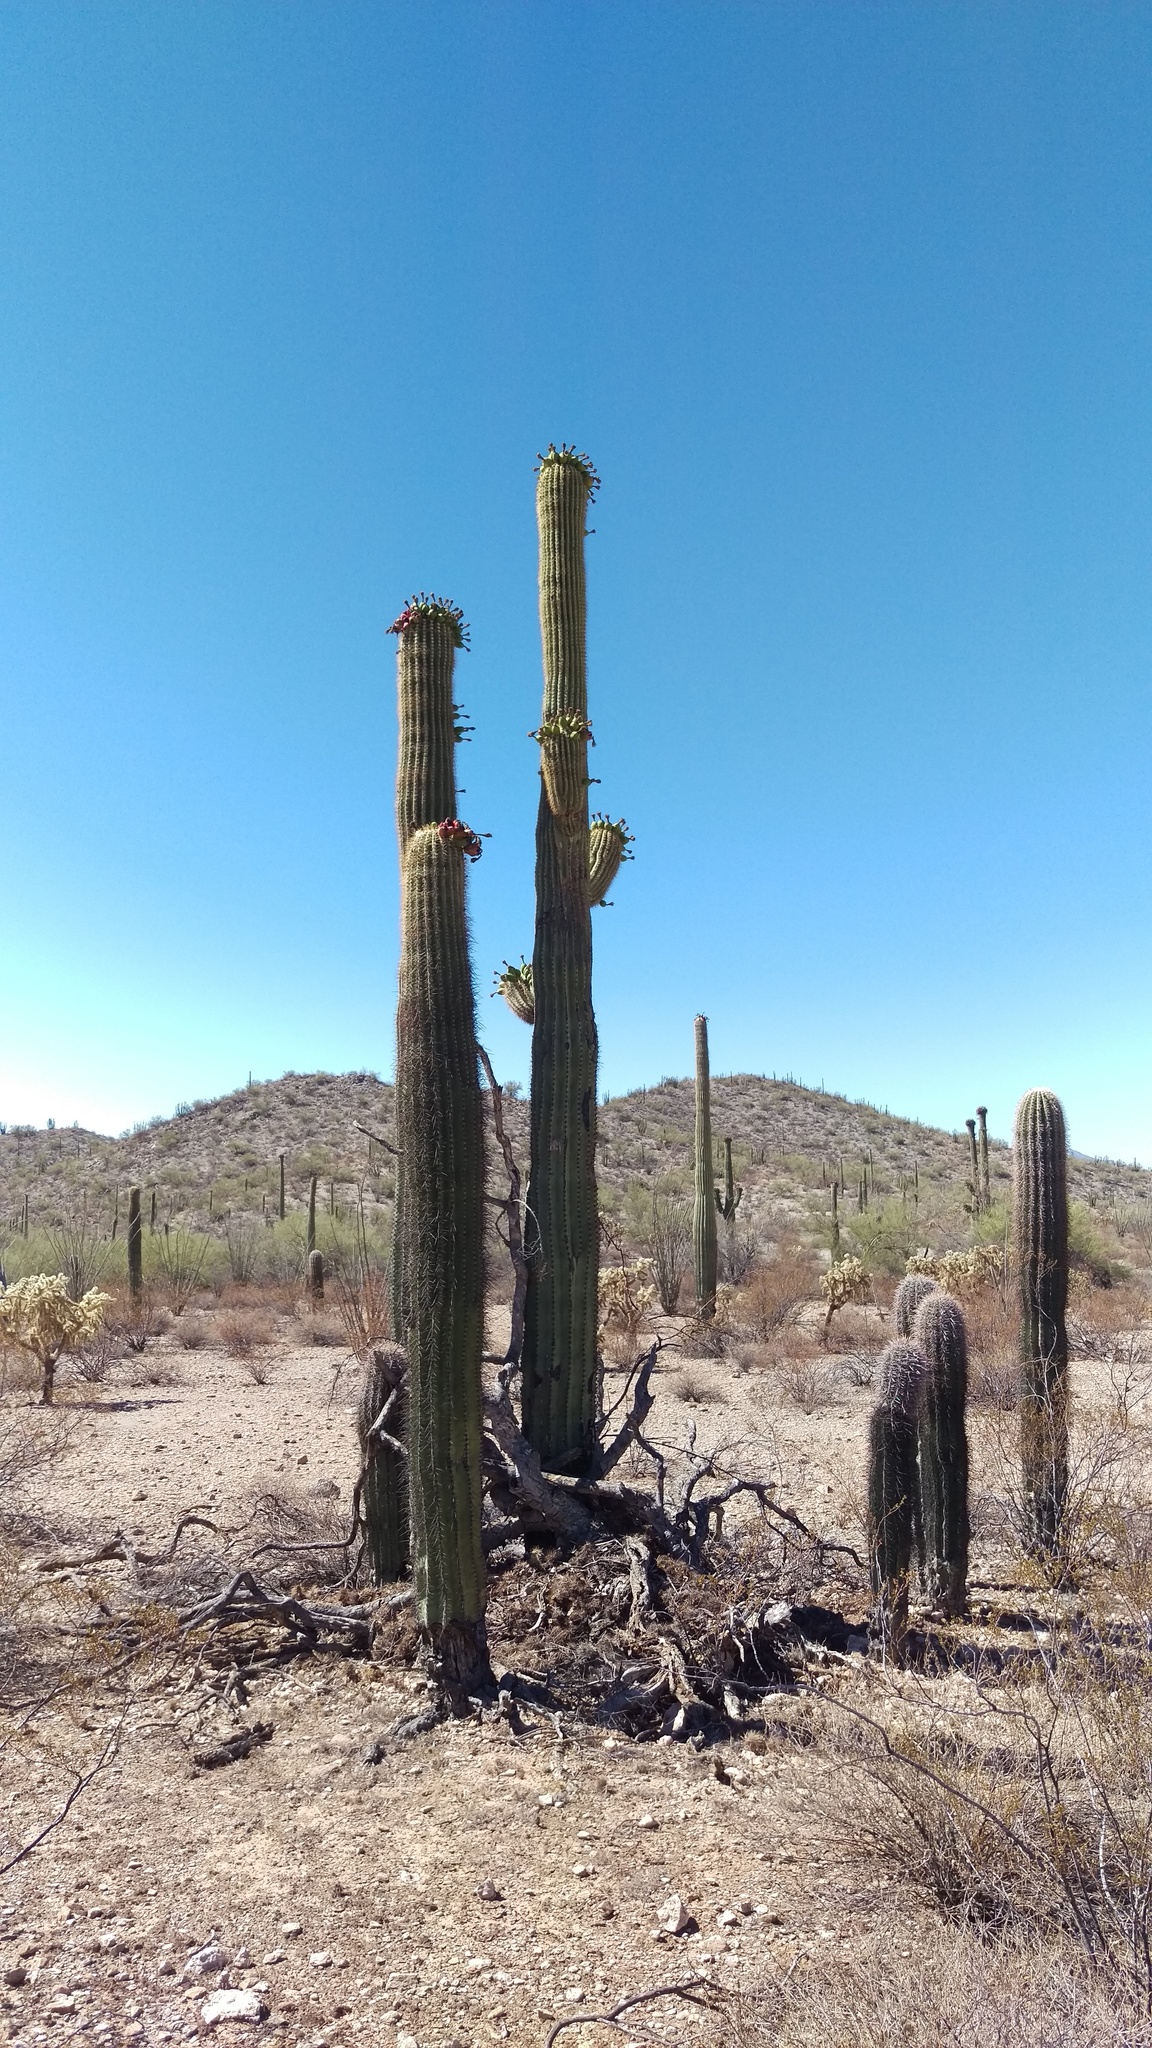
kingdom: Plantae
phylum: Tracheophyta
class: Magnoliopsida
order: Caryophyllales
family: Cactaceae
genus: Carnegiea
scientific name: Carnegiea gigantea
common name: Saguaro
